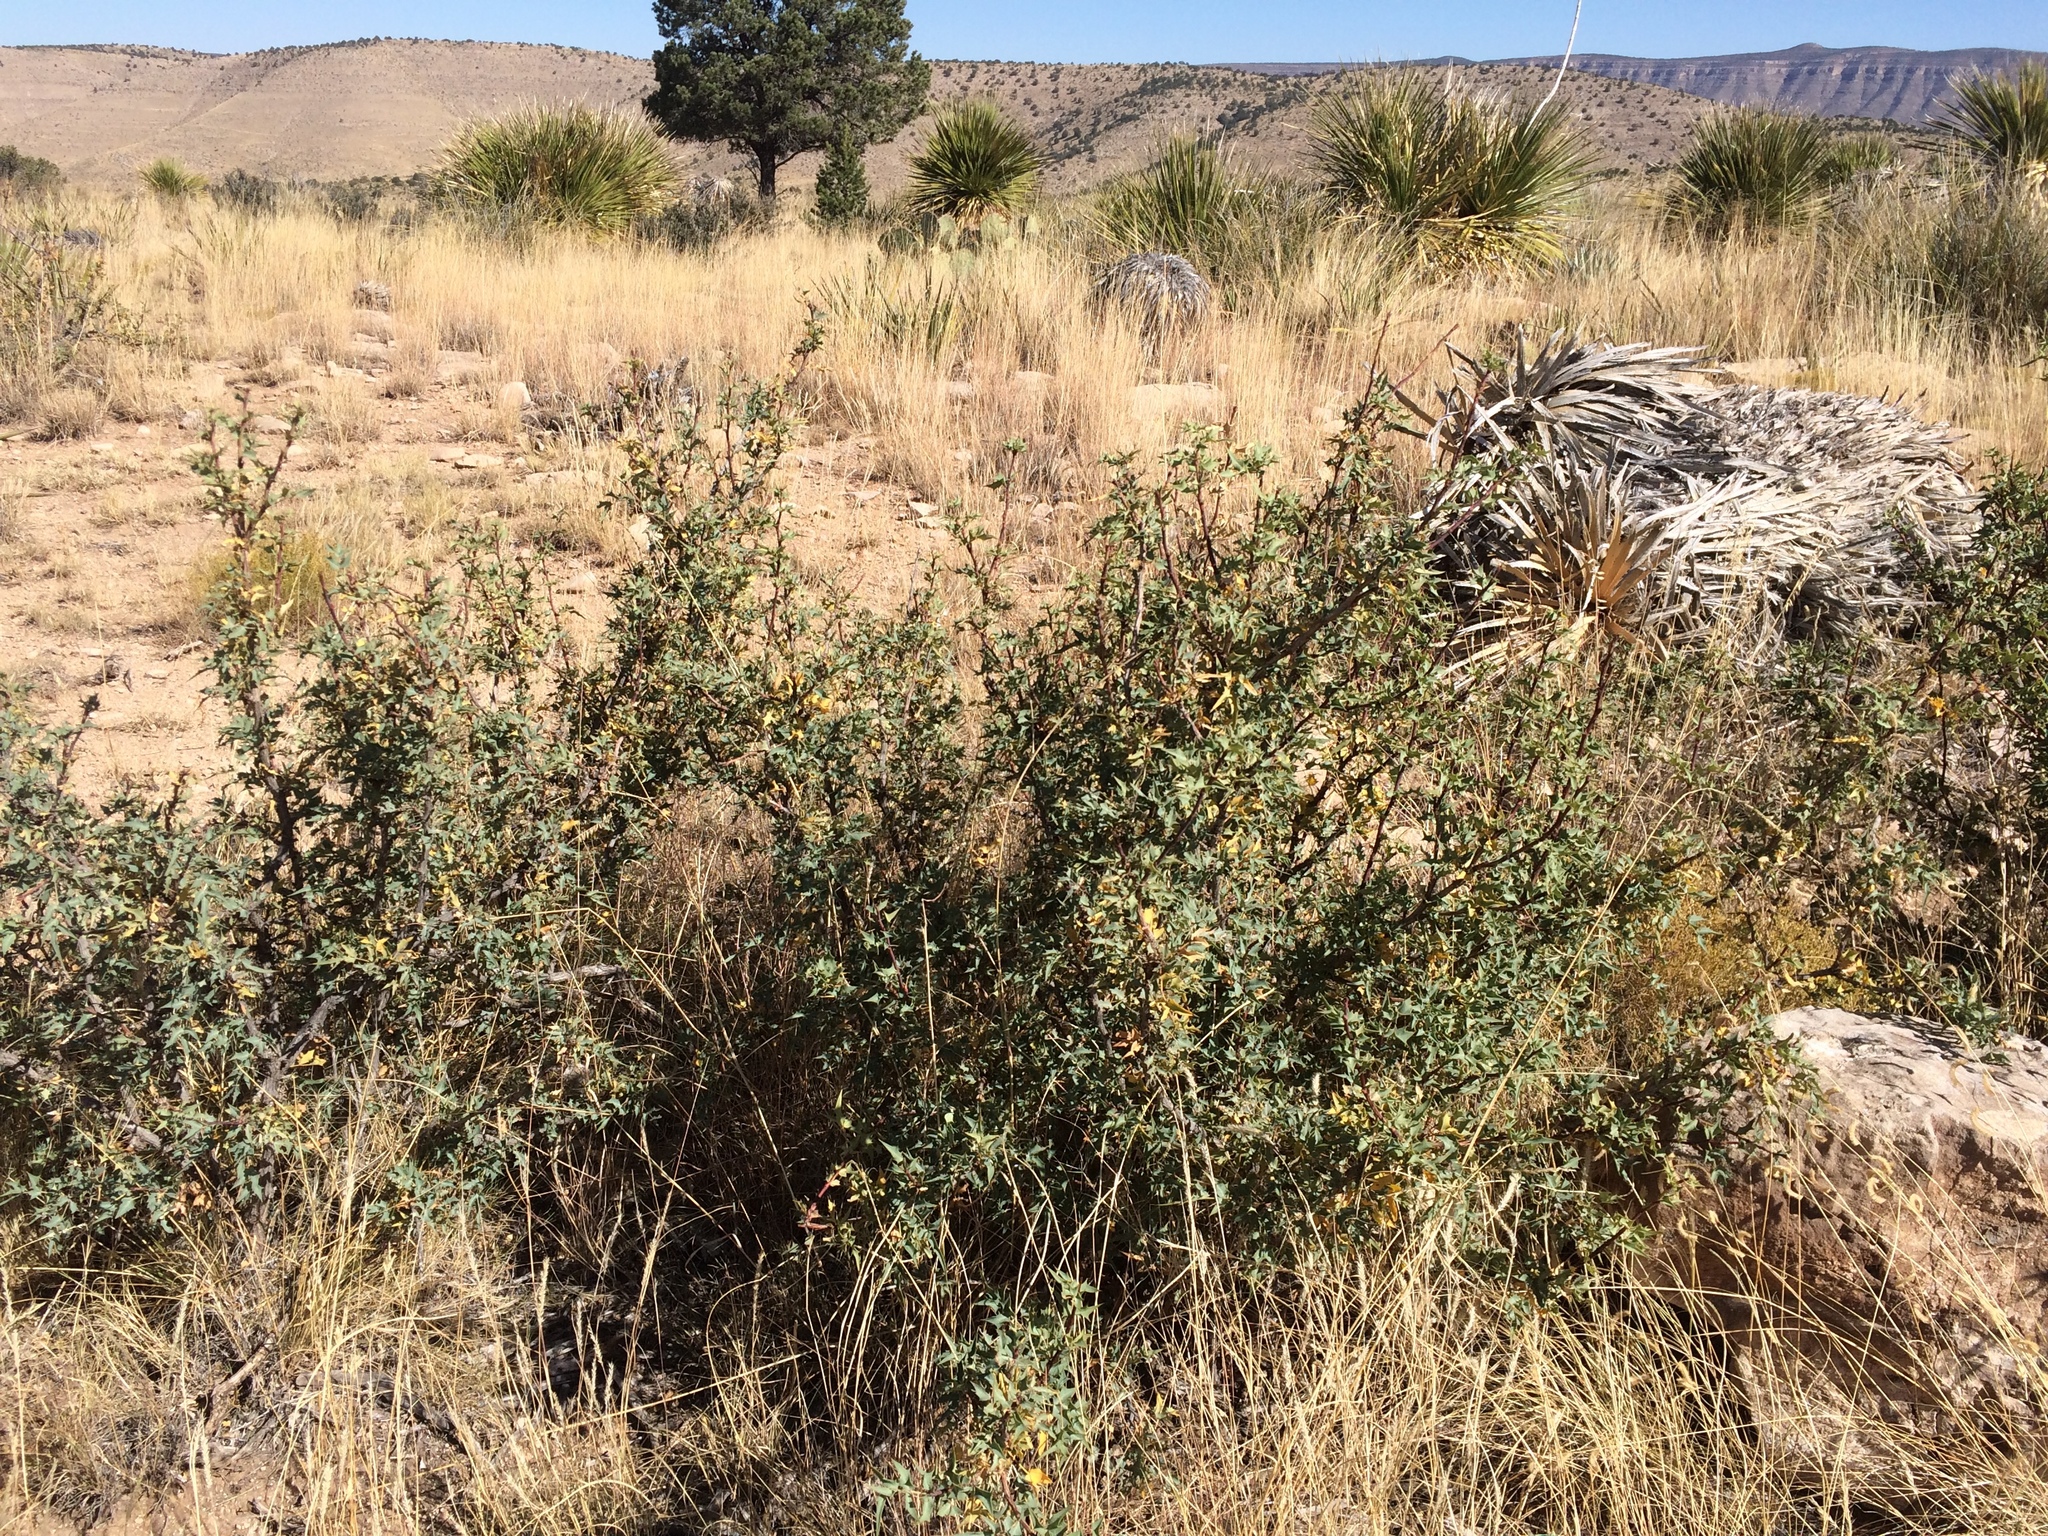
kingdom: Plantae
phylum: Tracheophyta
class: Magnoliopsida
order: Ranunculales
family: Berberidaceae
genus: Alloberberis
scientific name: Alloberberis haematocarpa
